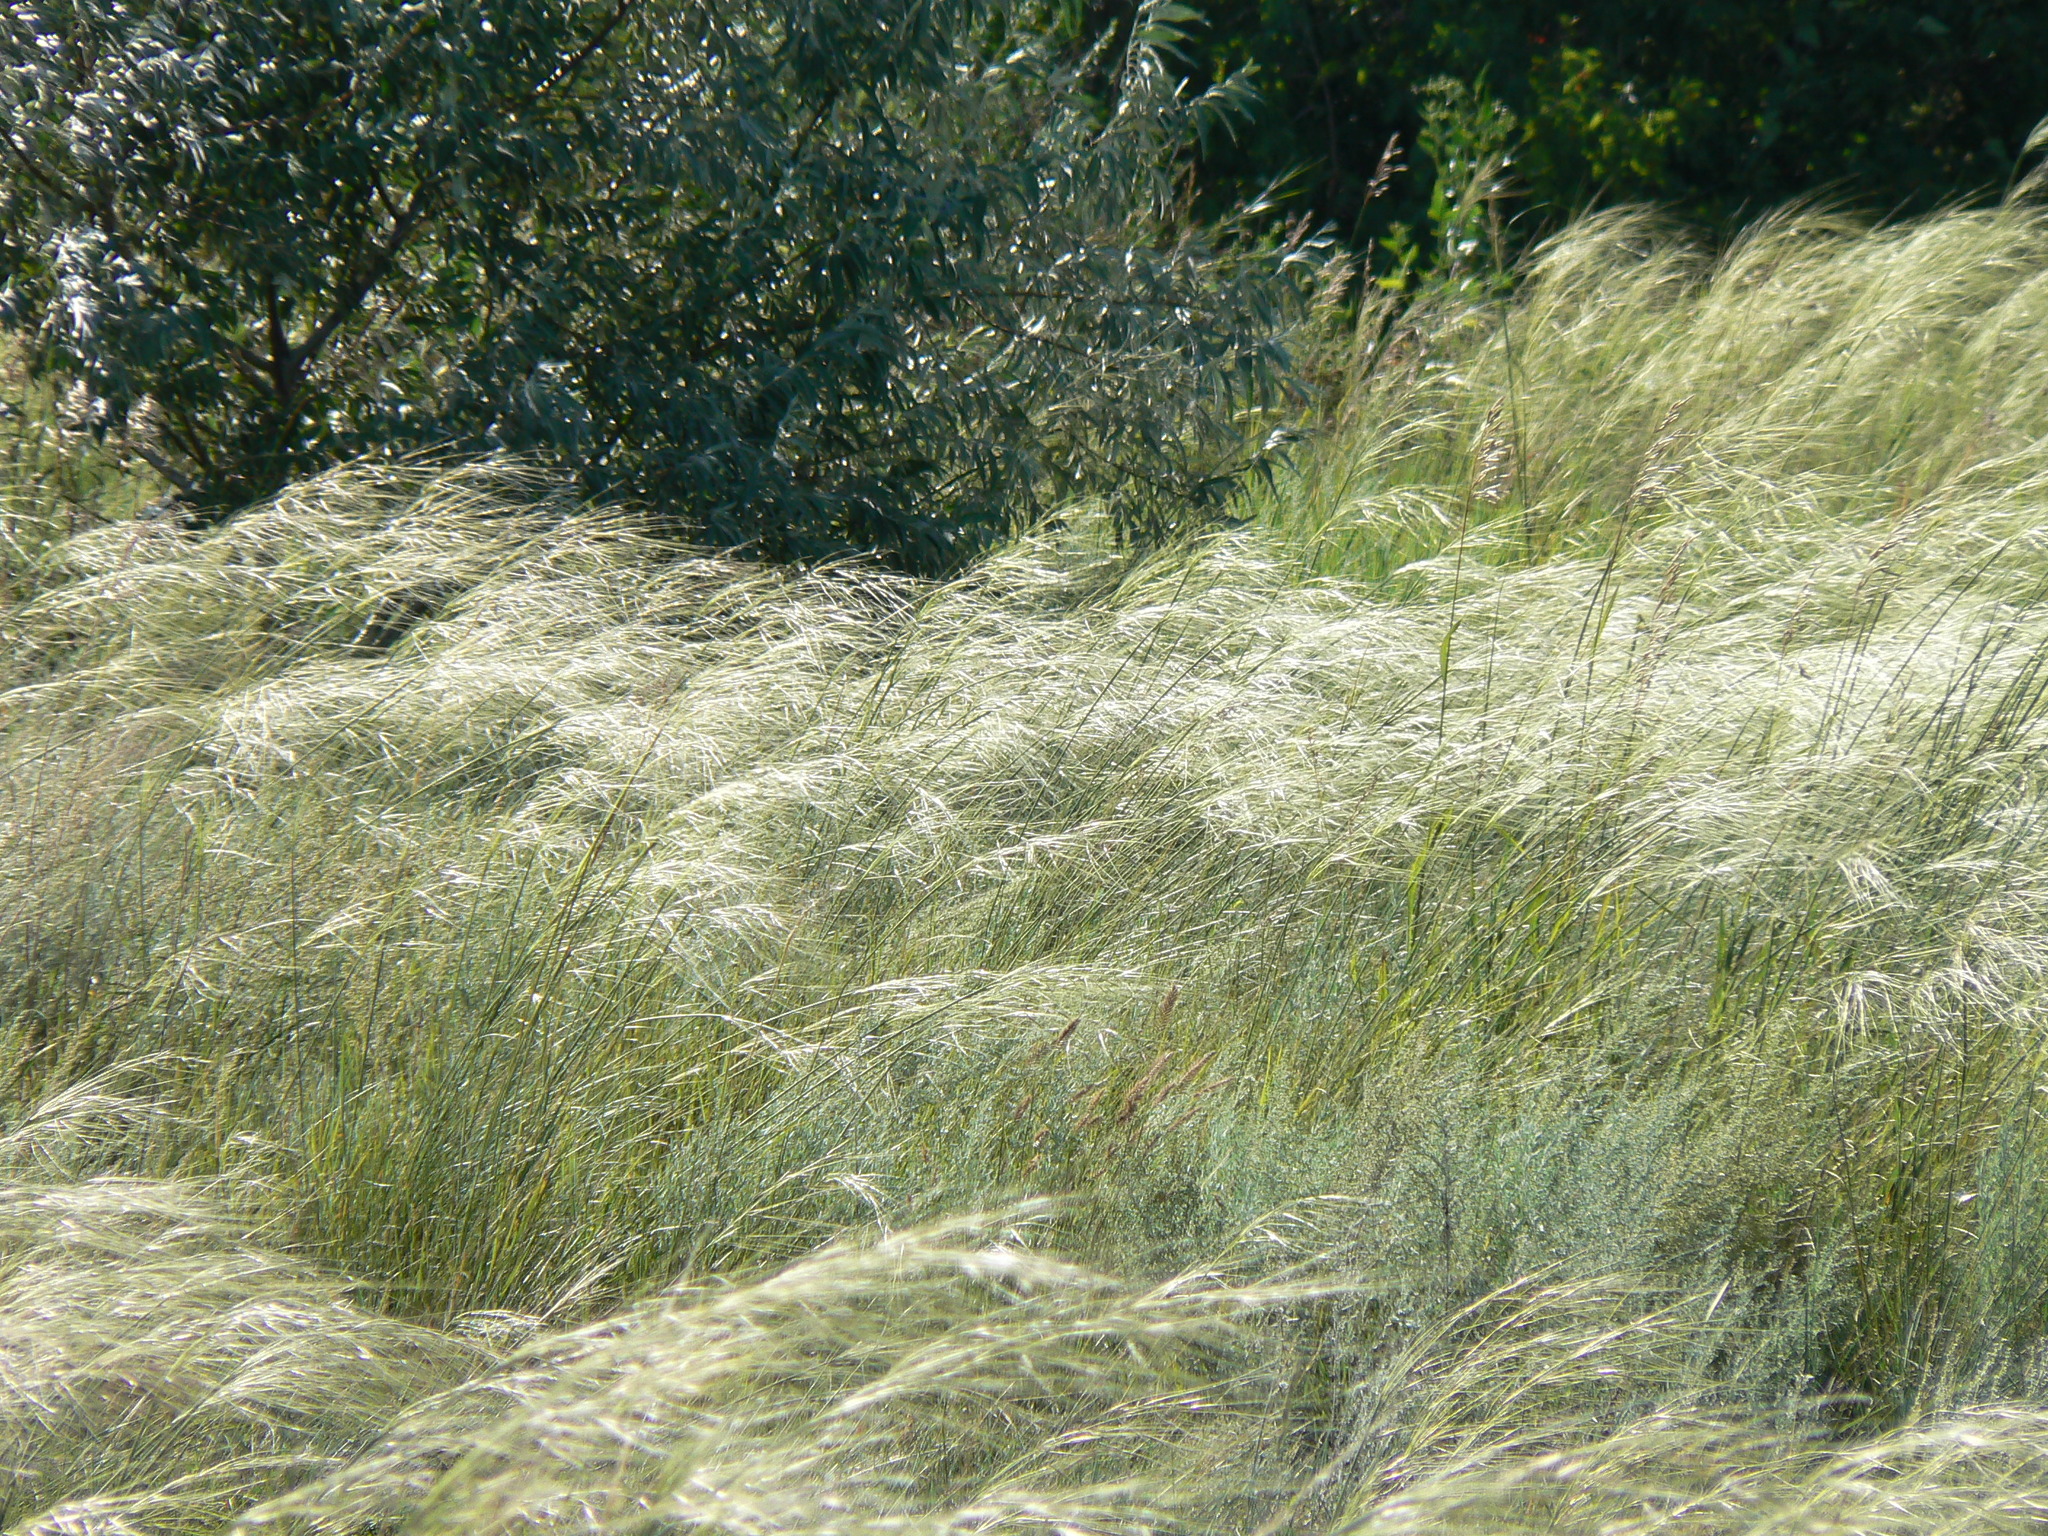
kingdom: Plantae
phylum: Tracheophyta
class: Liliopsida
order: Poales
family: Poaceae
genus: Stipa
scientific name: Stipa capillata
